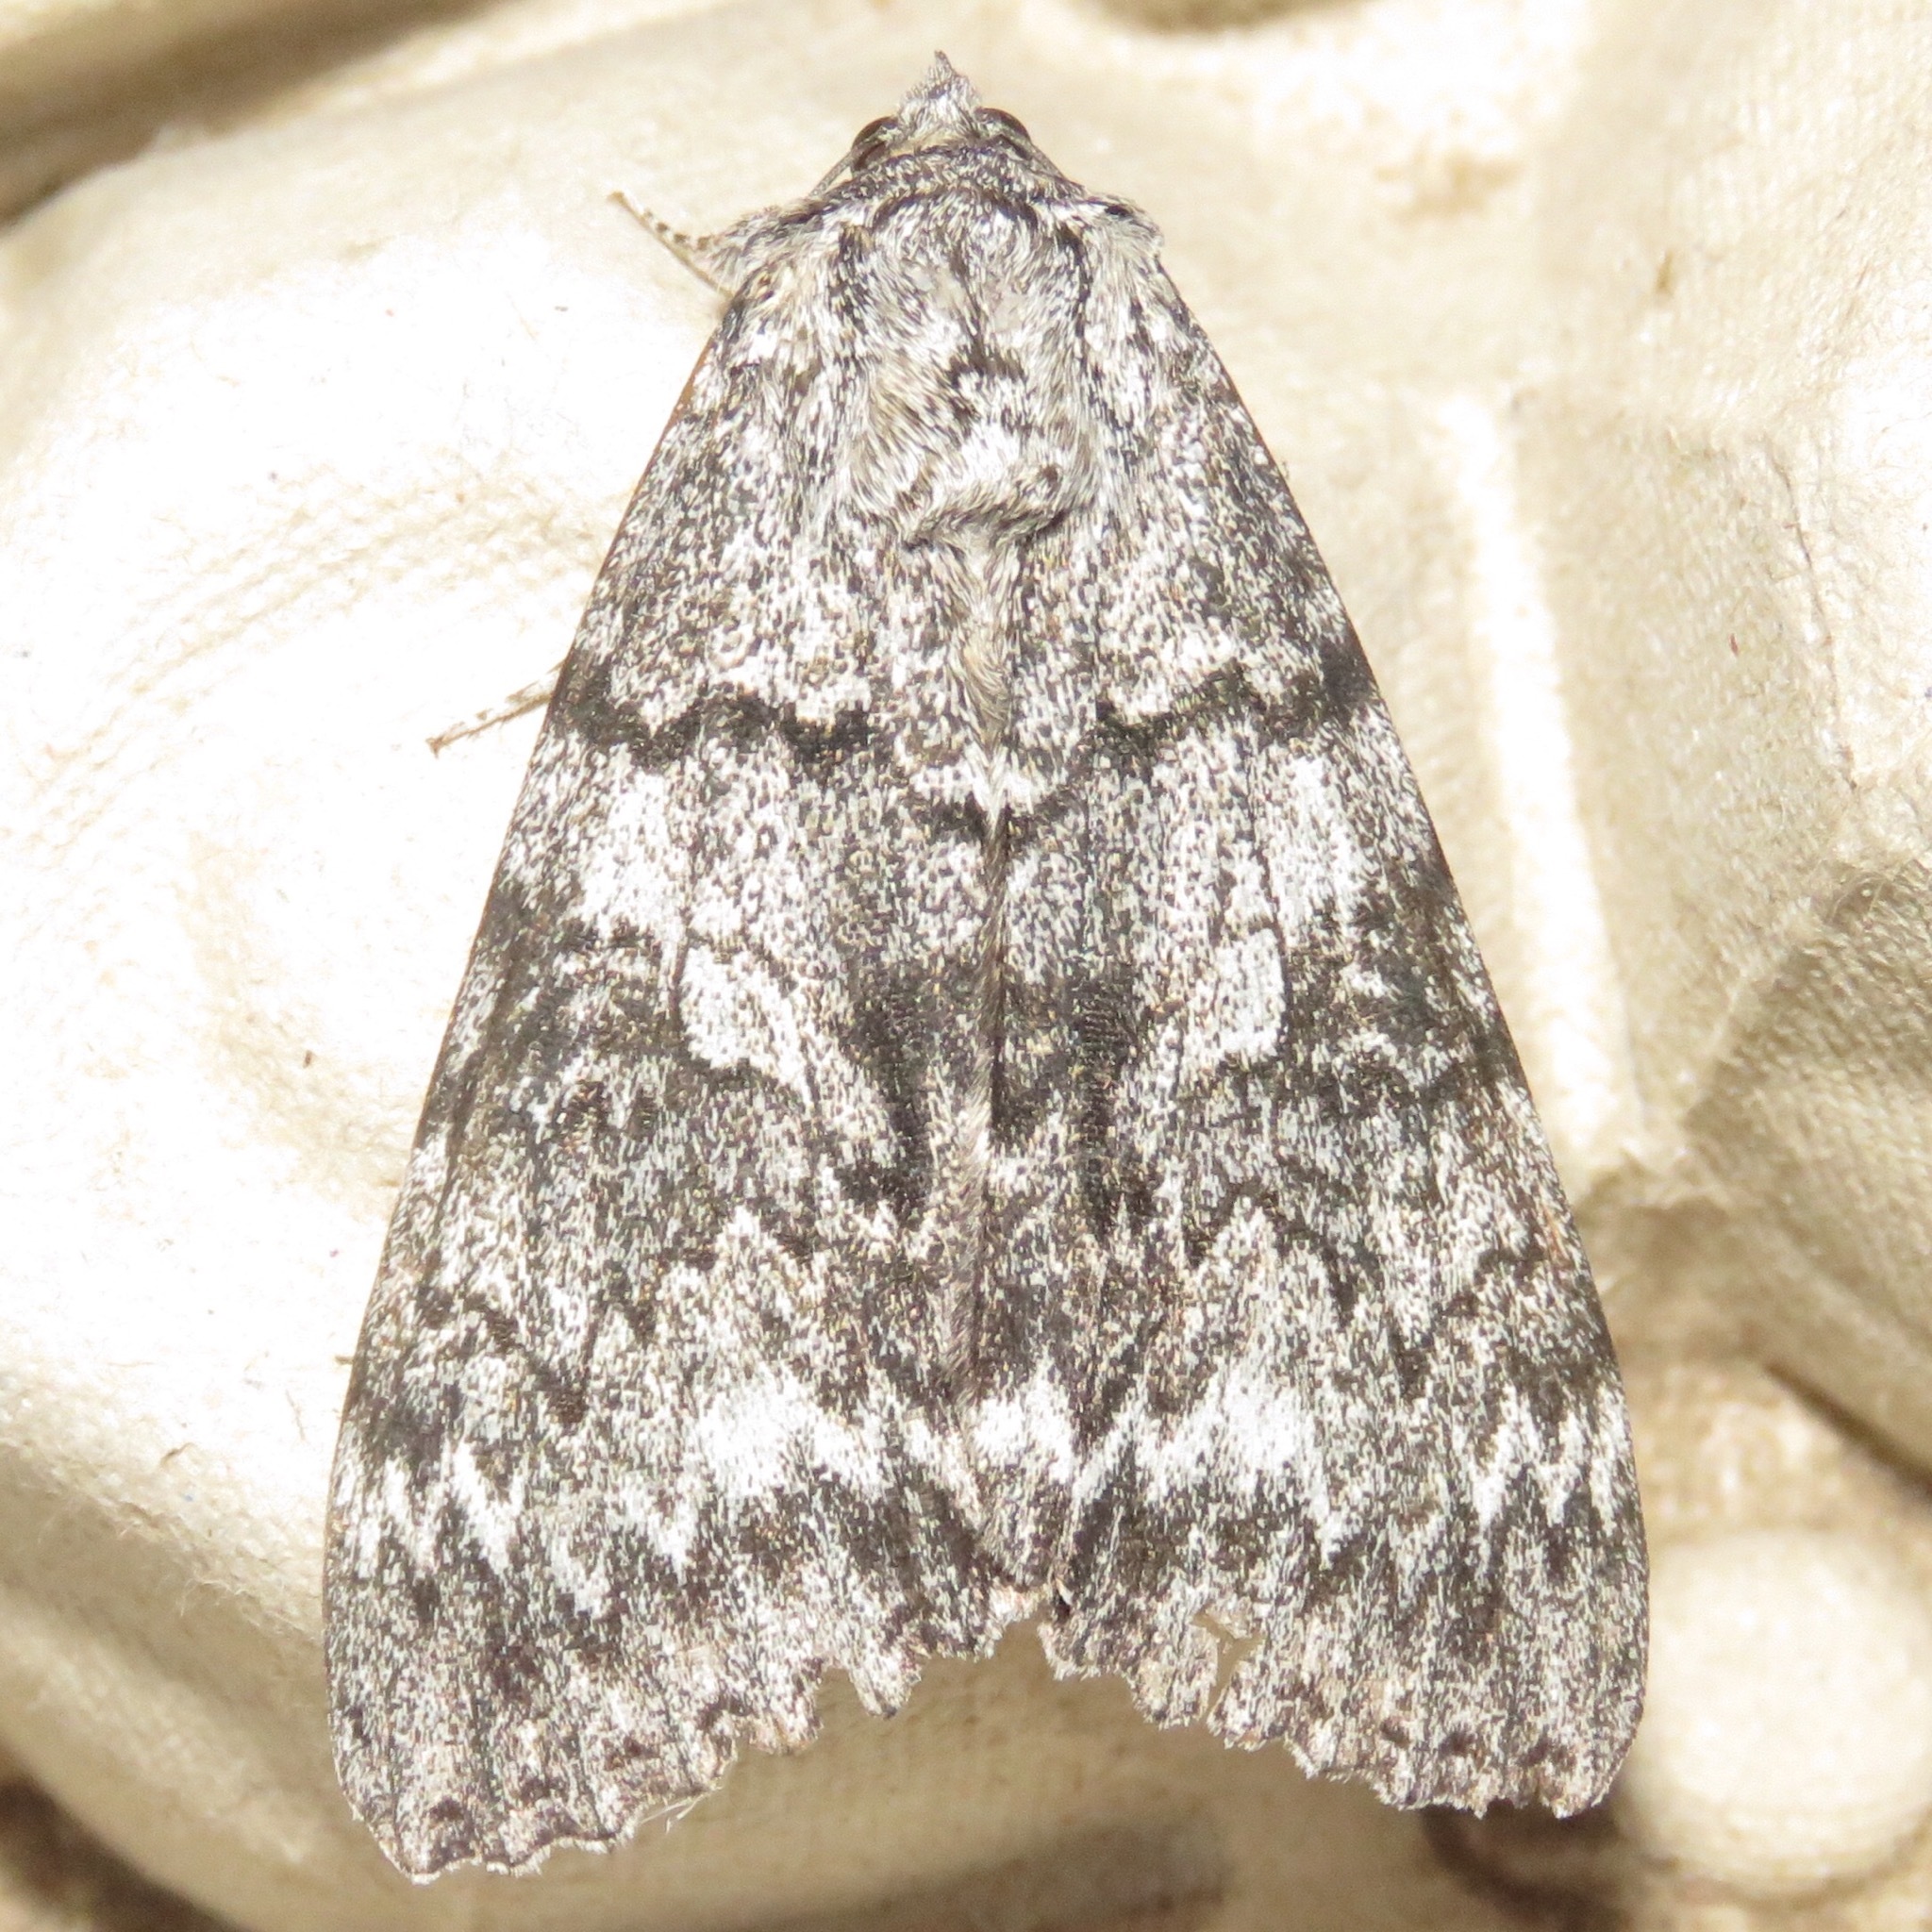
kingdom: Animalia
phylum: Arthropoda
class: Insecta
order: Lepidoptera
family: Erebidae
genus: Catocala
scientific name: Catocala unijuga
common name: Once-married underwing
